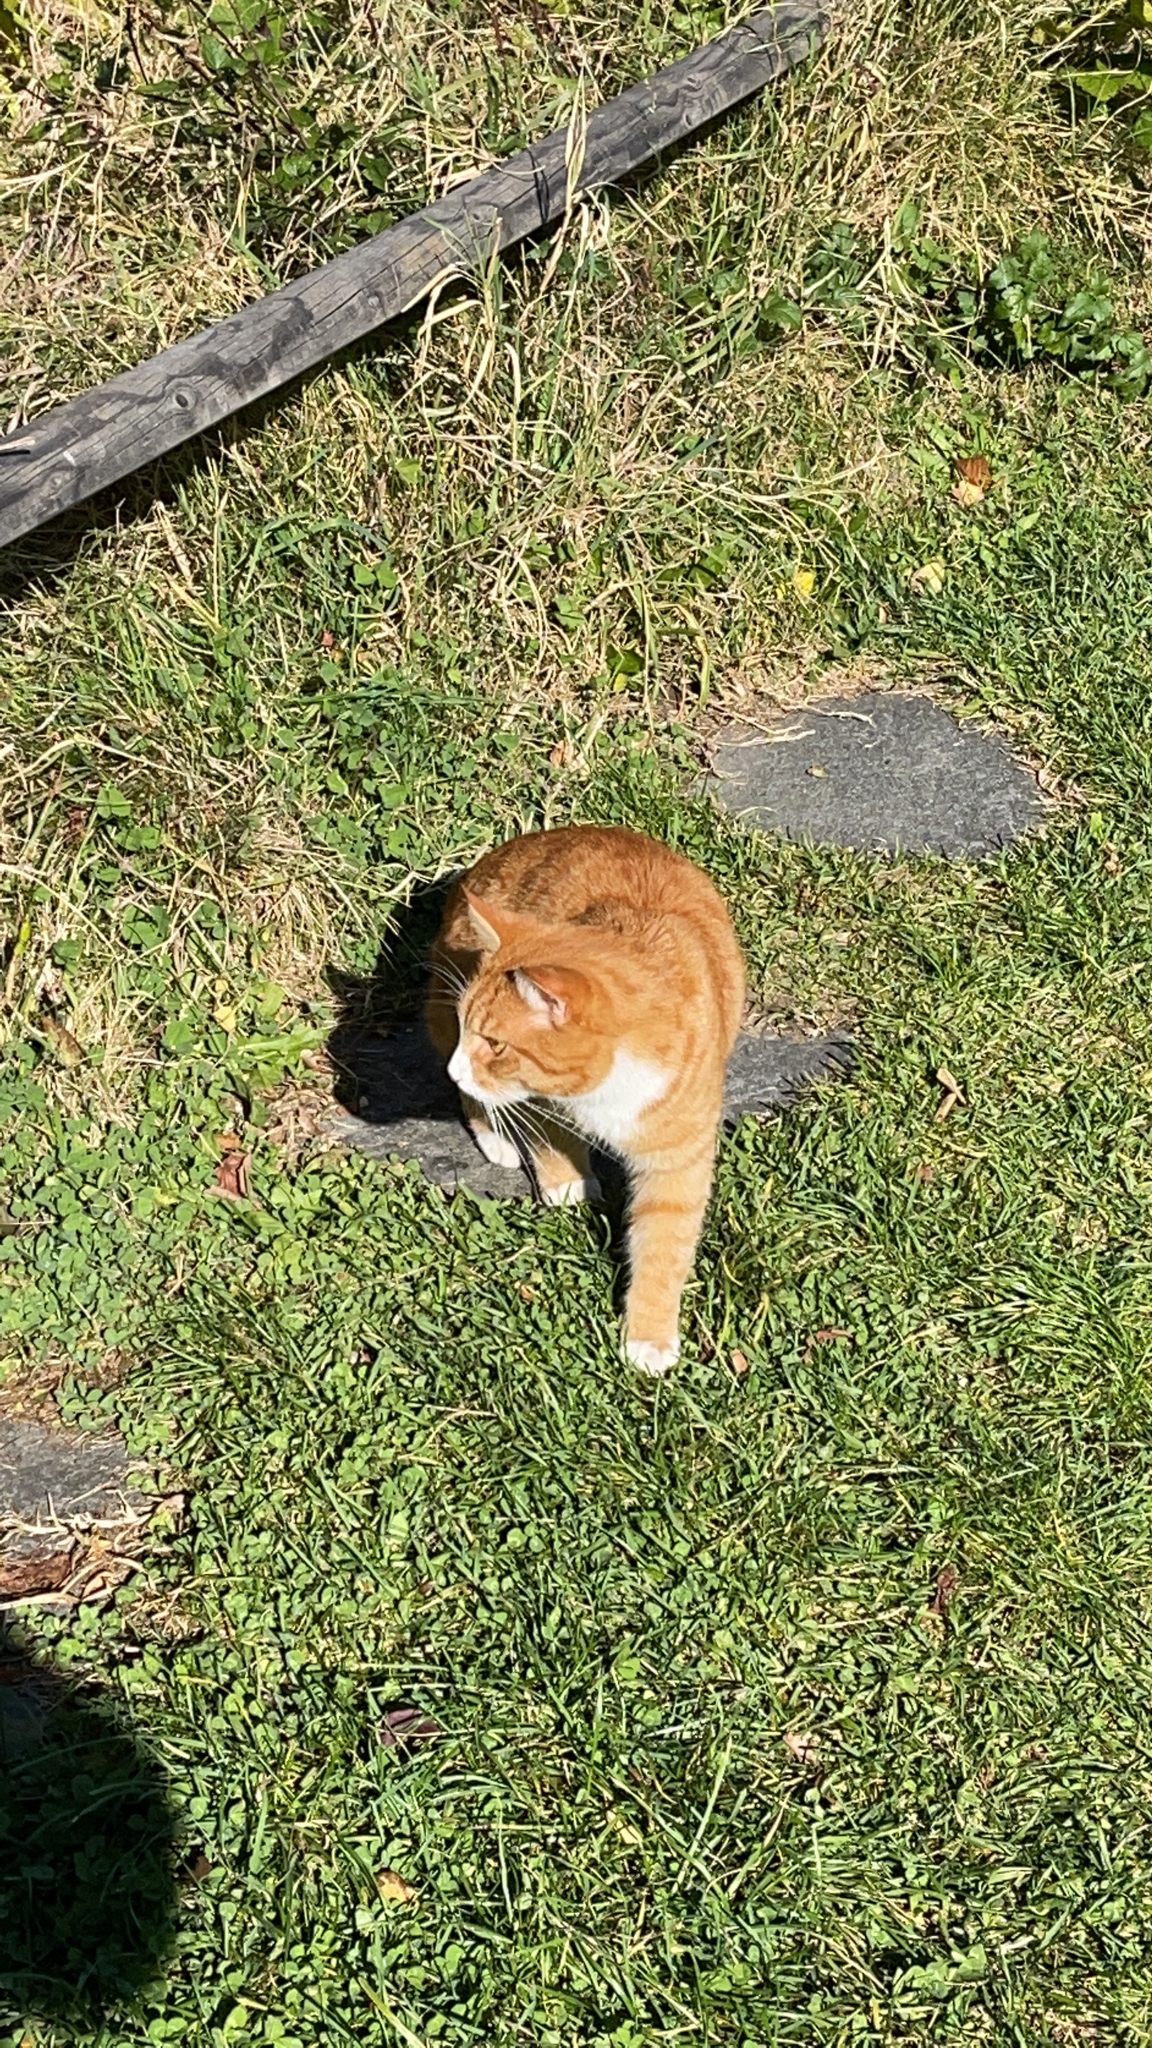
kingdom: Animalia
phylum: Chordata
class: Mammalia
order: Carnivora
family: Felidae
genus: Felis
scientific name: Felis catus
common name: Domestic cat
